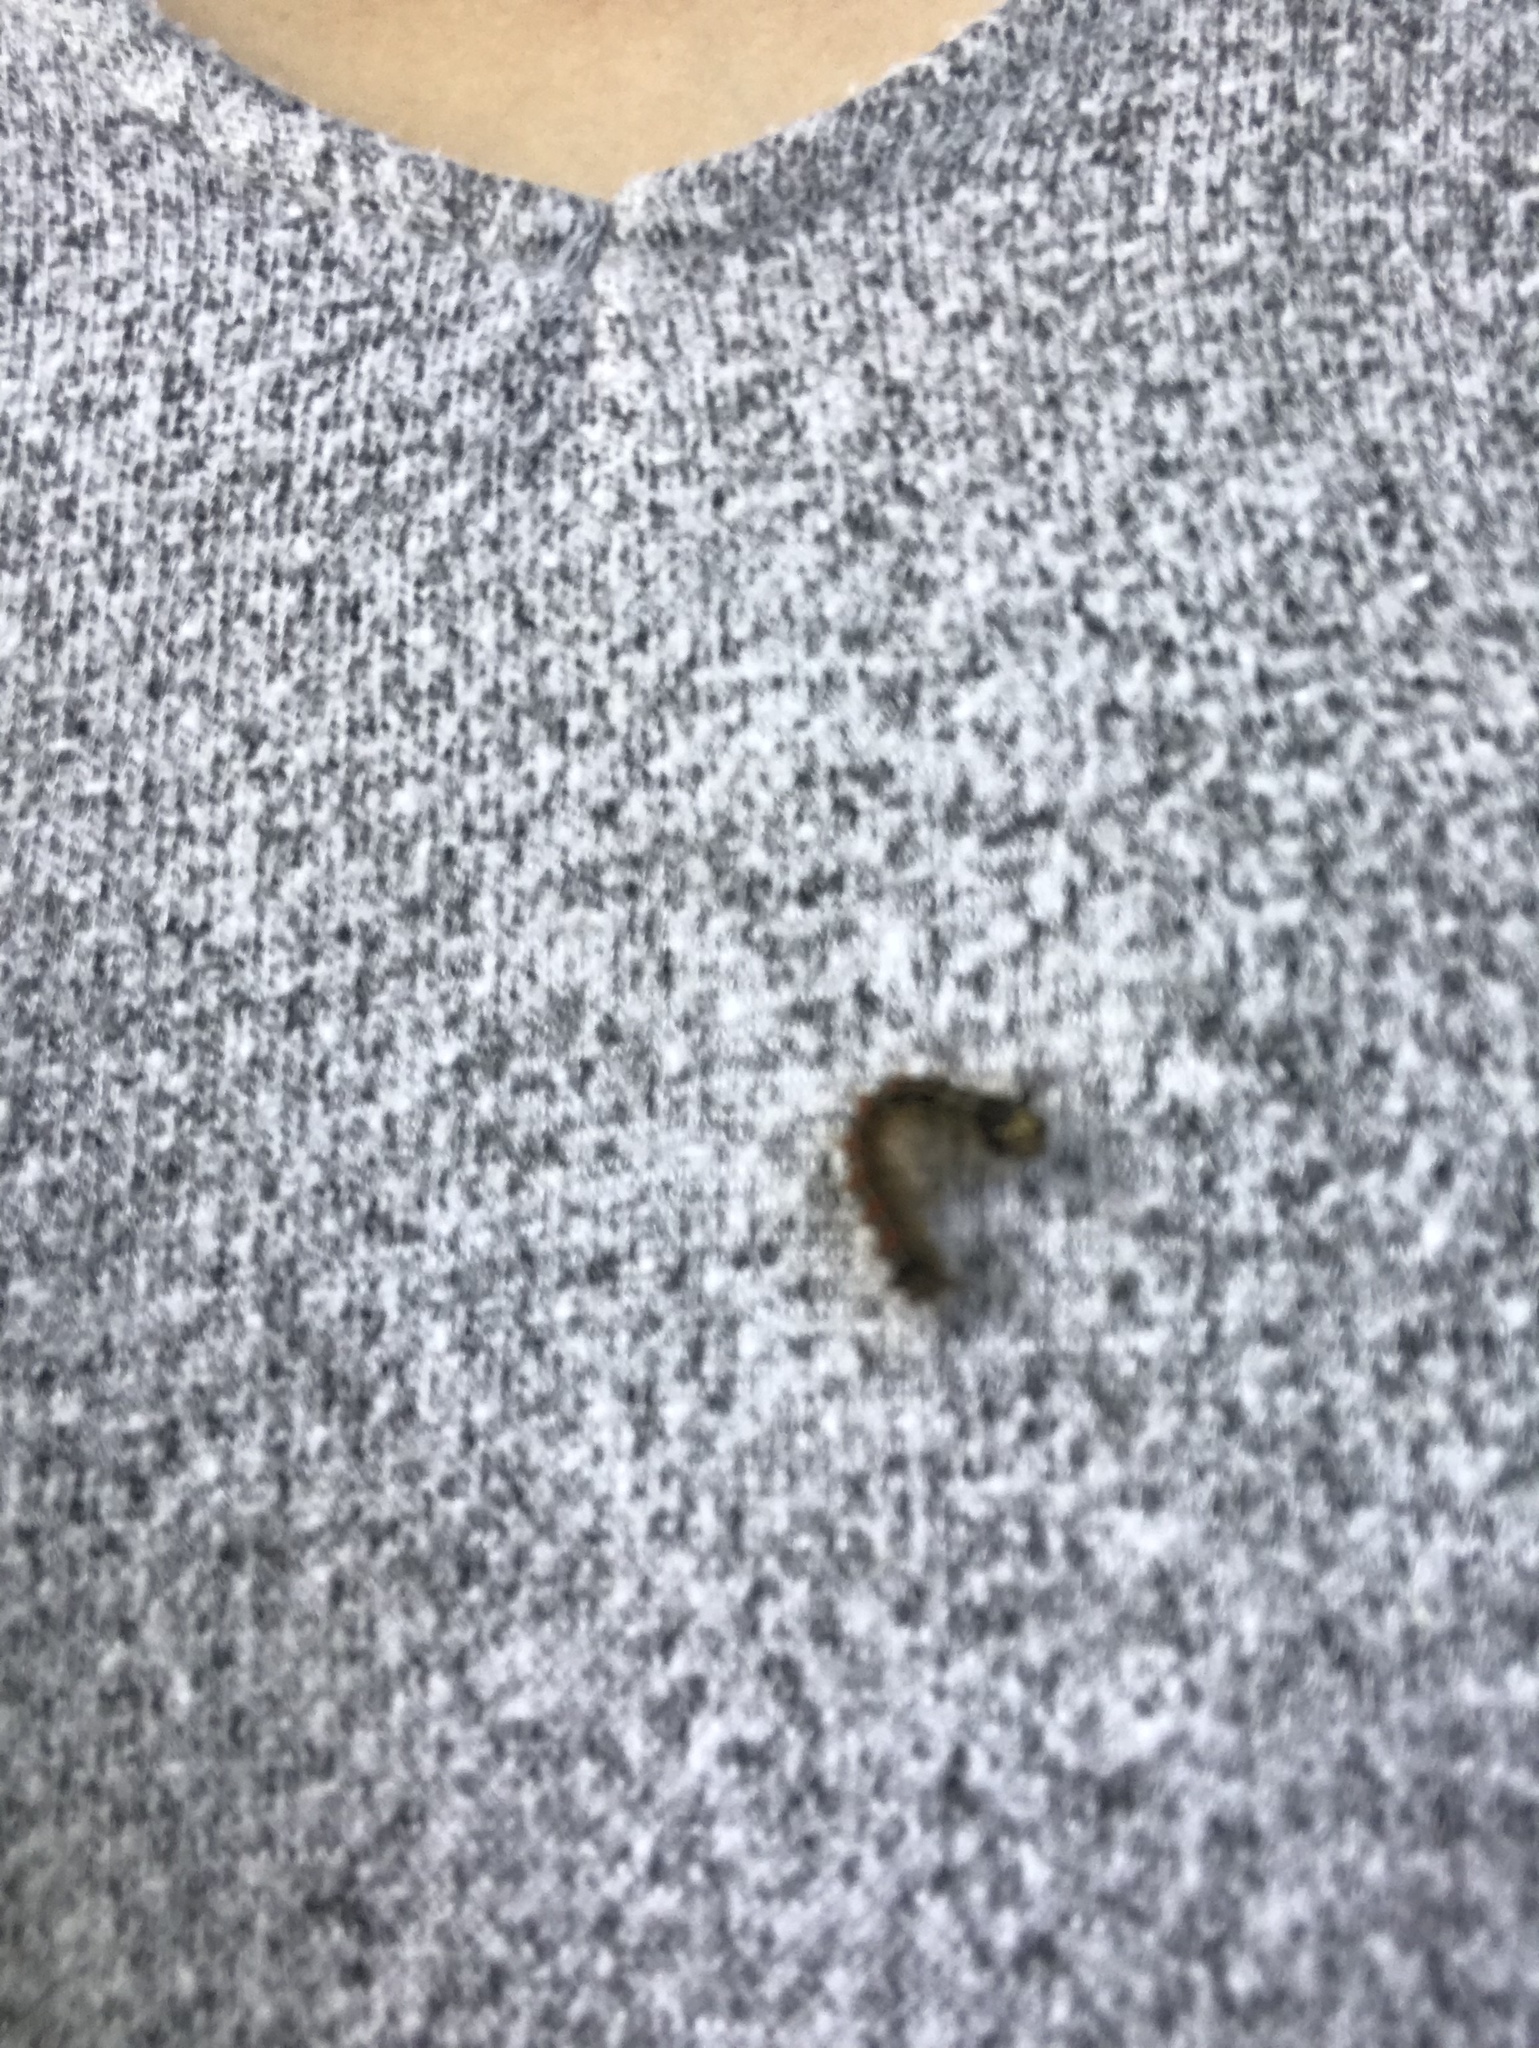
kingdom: Animalia
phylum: Arthropoda
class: Insecta
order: Lepidoptera
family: Erebidae
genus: Lymantria
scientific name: Lymantria dispar
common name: Gypsy moth
